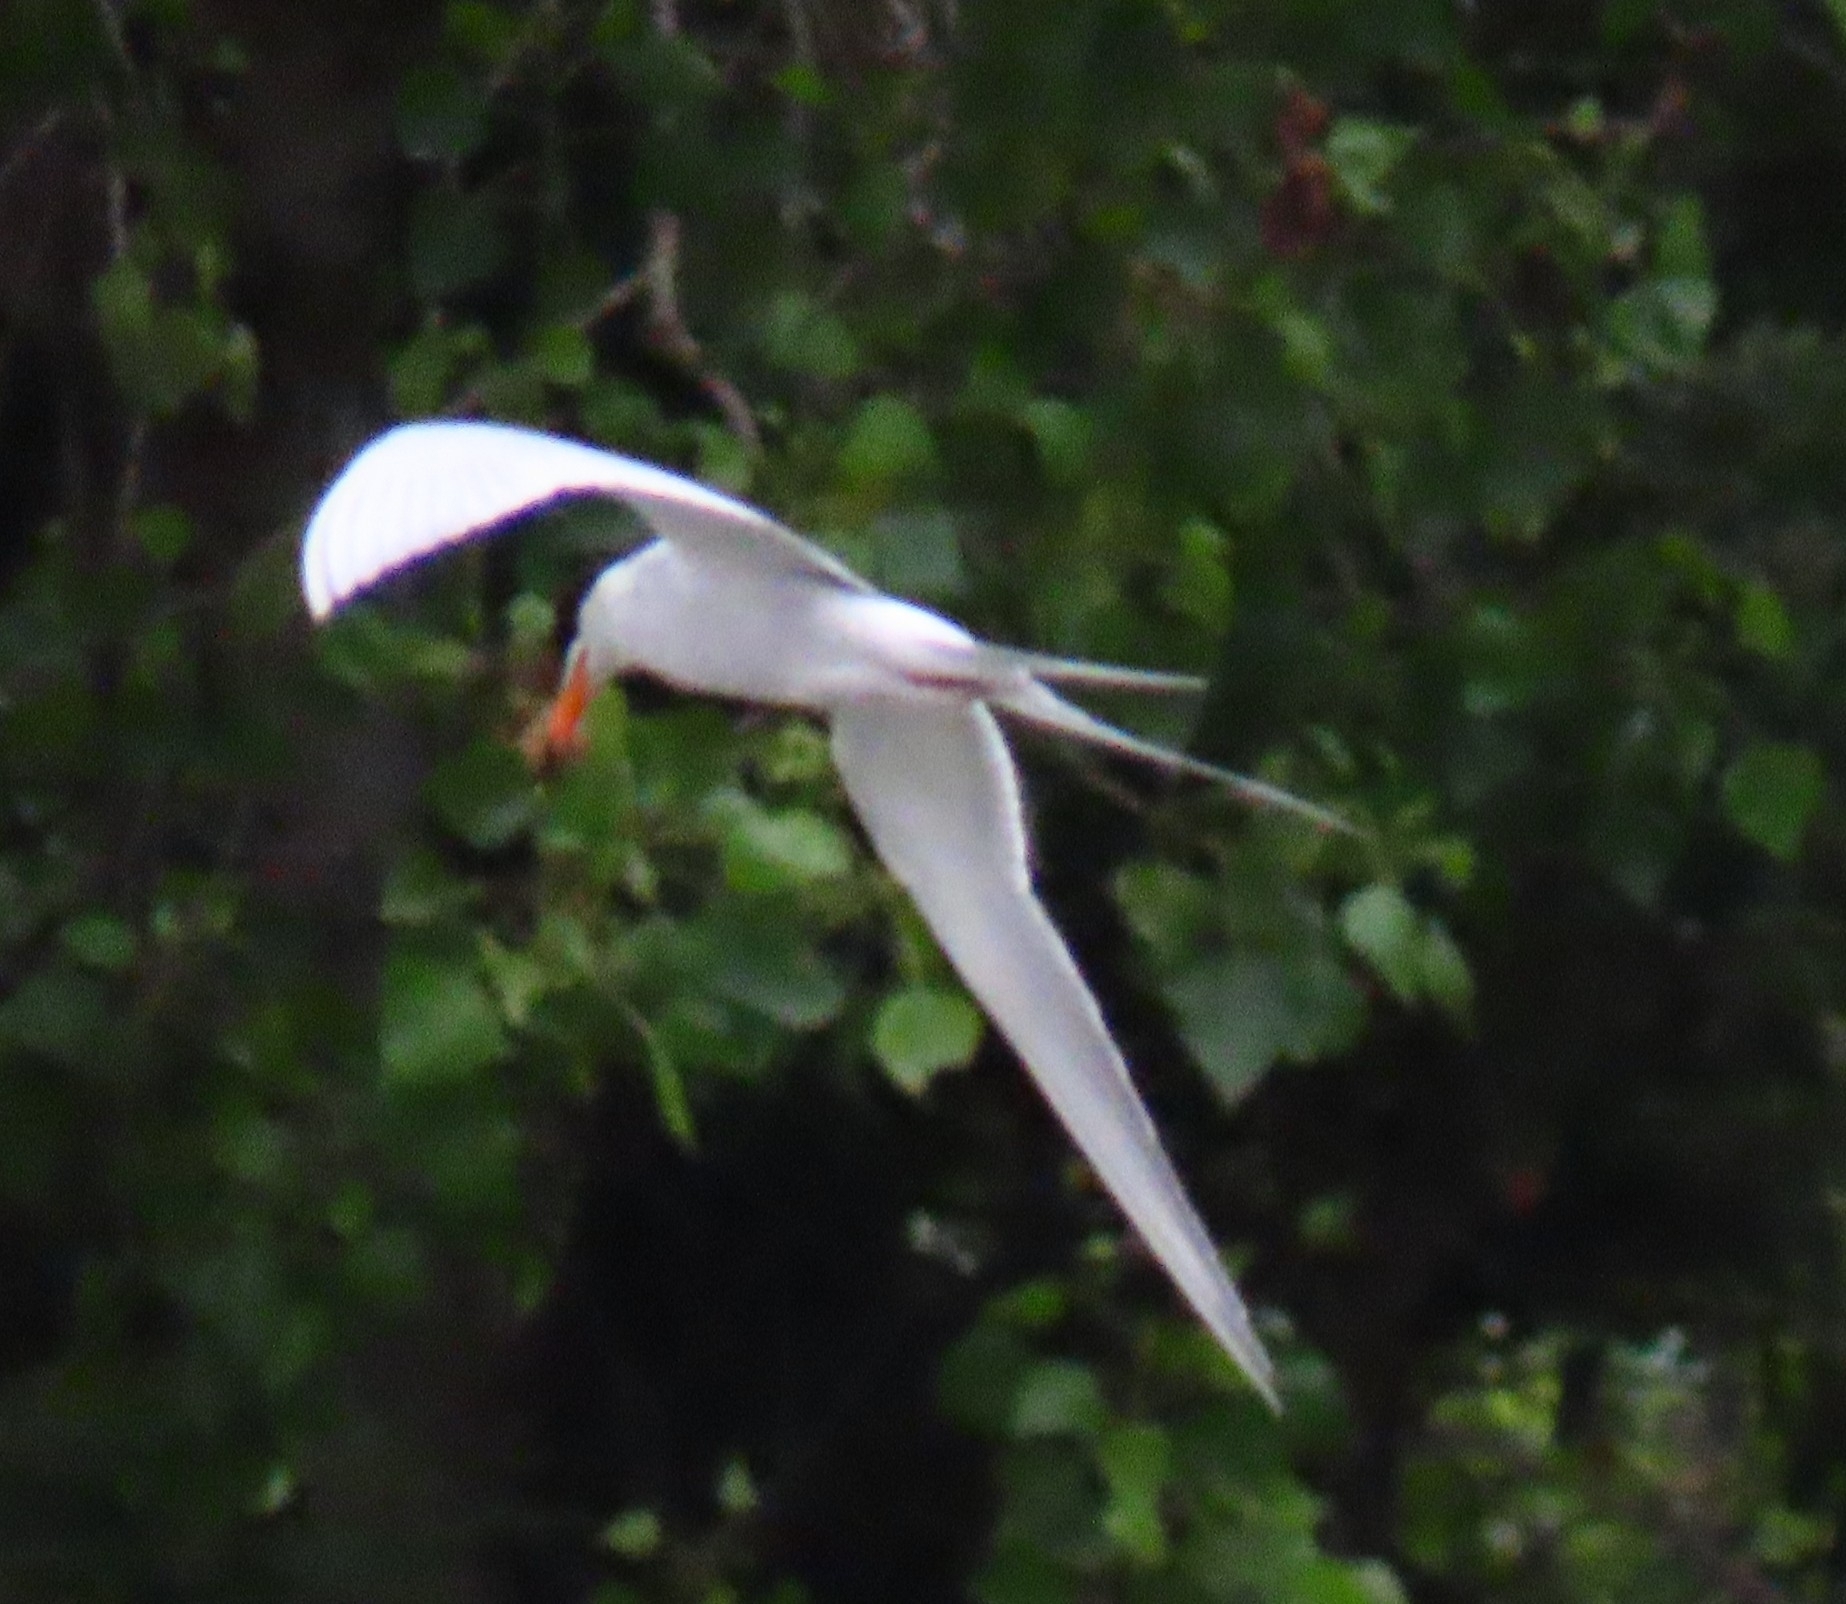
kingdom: Animalia
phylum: Chordata
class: Aves
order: Charadriiformes
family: Laridae
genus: Sterna
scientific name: Sterna forsteri
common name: Forster's tern
